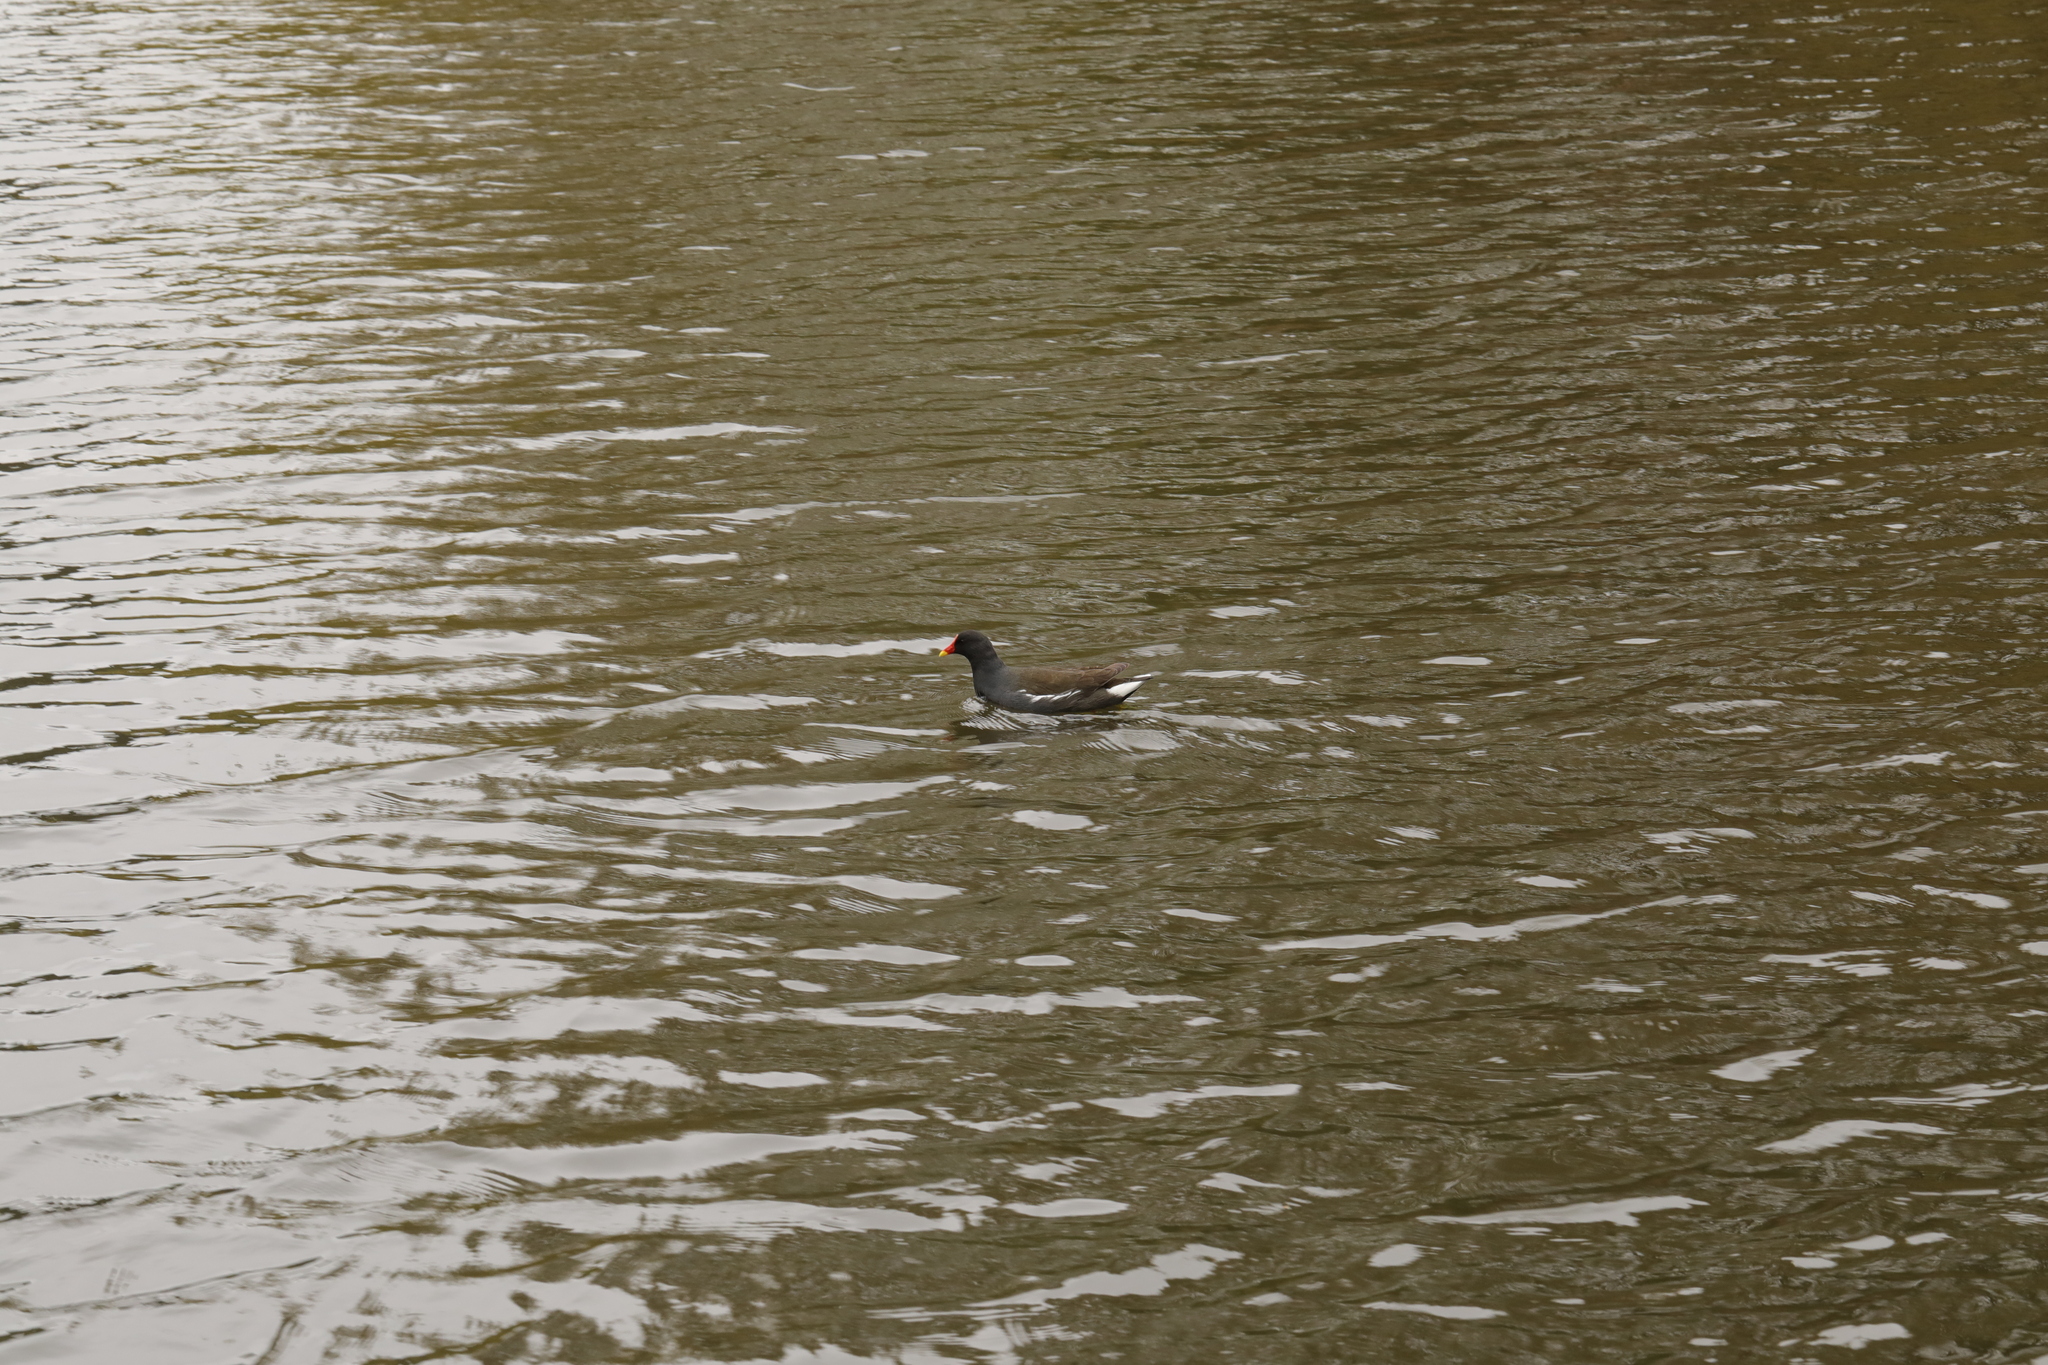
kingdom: Animalia
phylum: Chordata
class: Aves
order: Gruiformes
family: Rallidae
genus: Gallinula
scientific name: Gallinula chloropus
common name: Common moorhen
